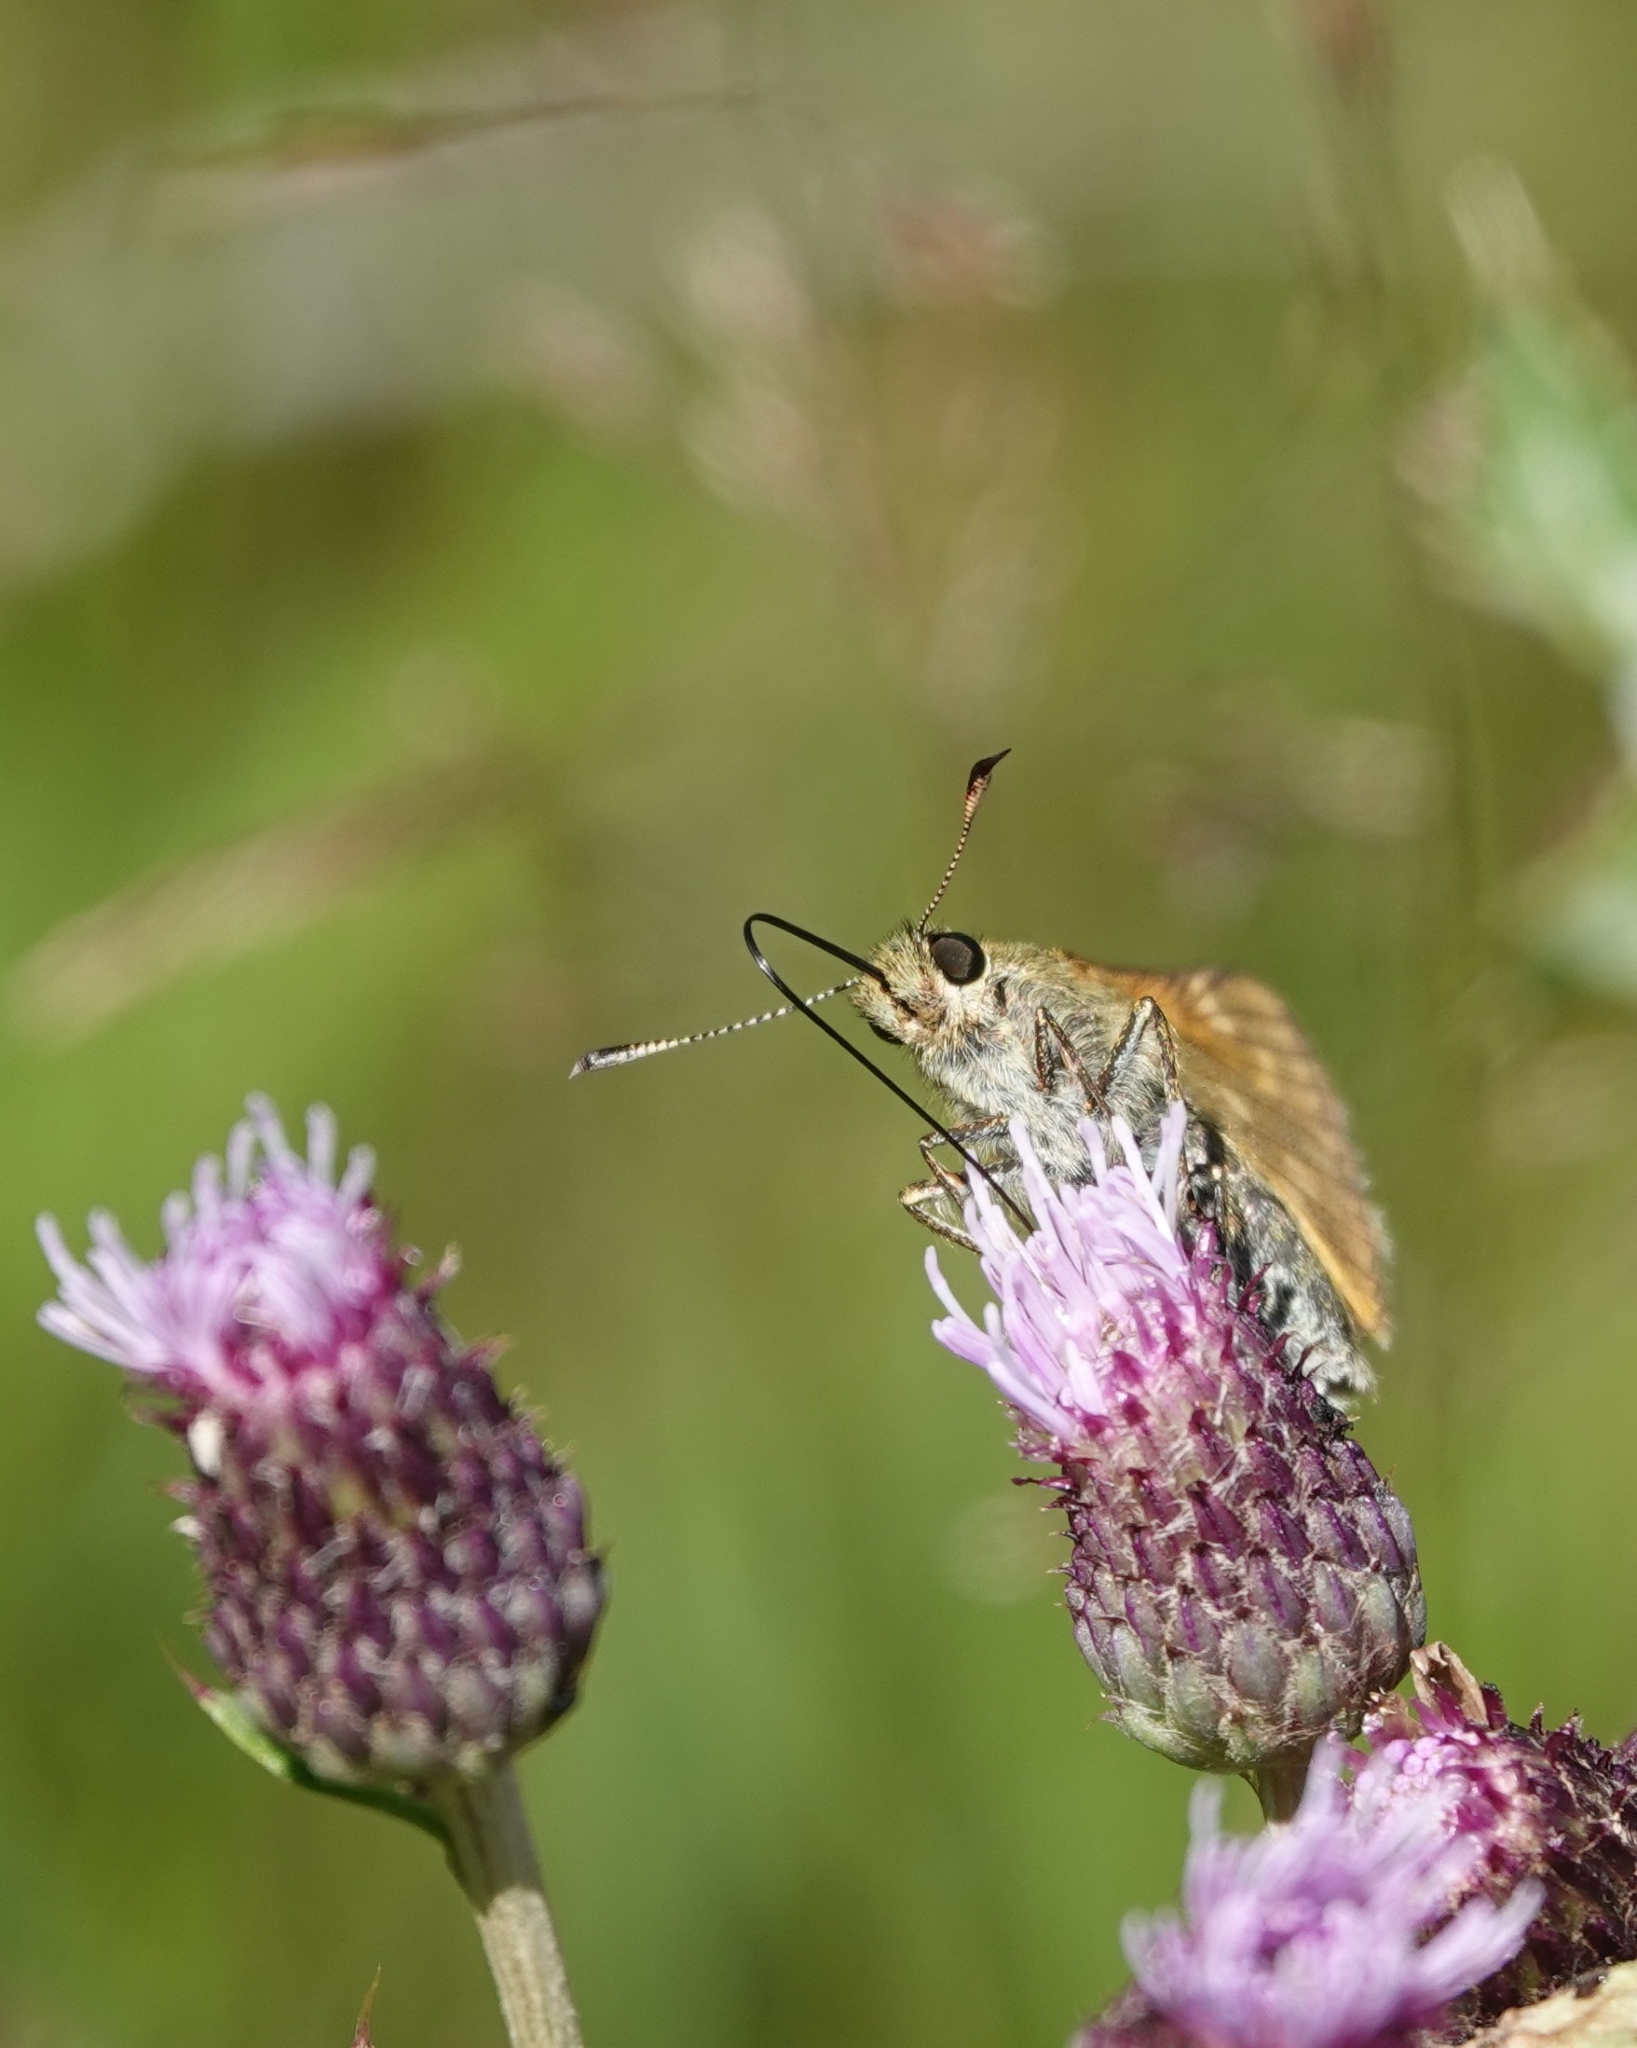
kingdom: Animalia
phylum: Arthropoda
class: Insecta
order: Lepidoptera
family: Hesperiidae
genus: Ochlodes
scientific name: Ochlodes venata
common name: Large skipper
